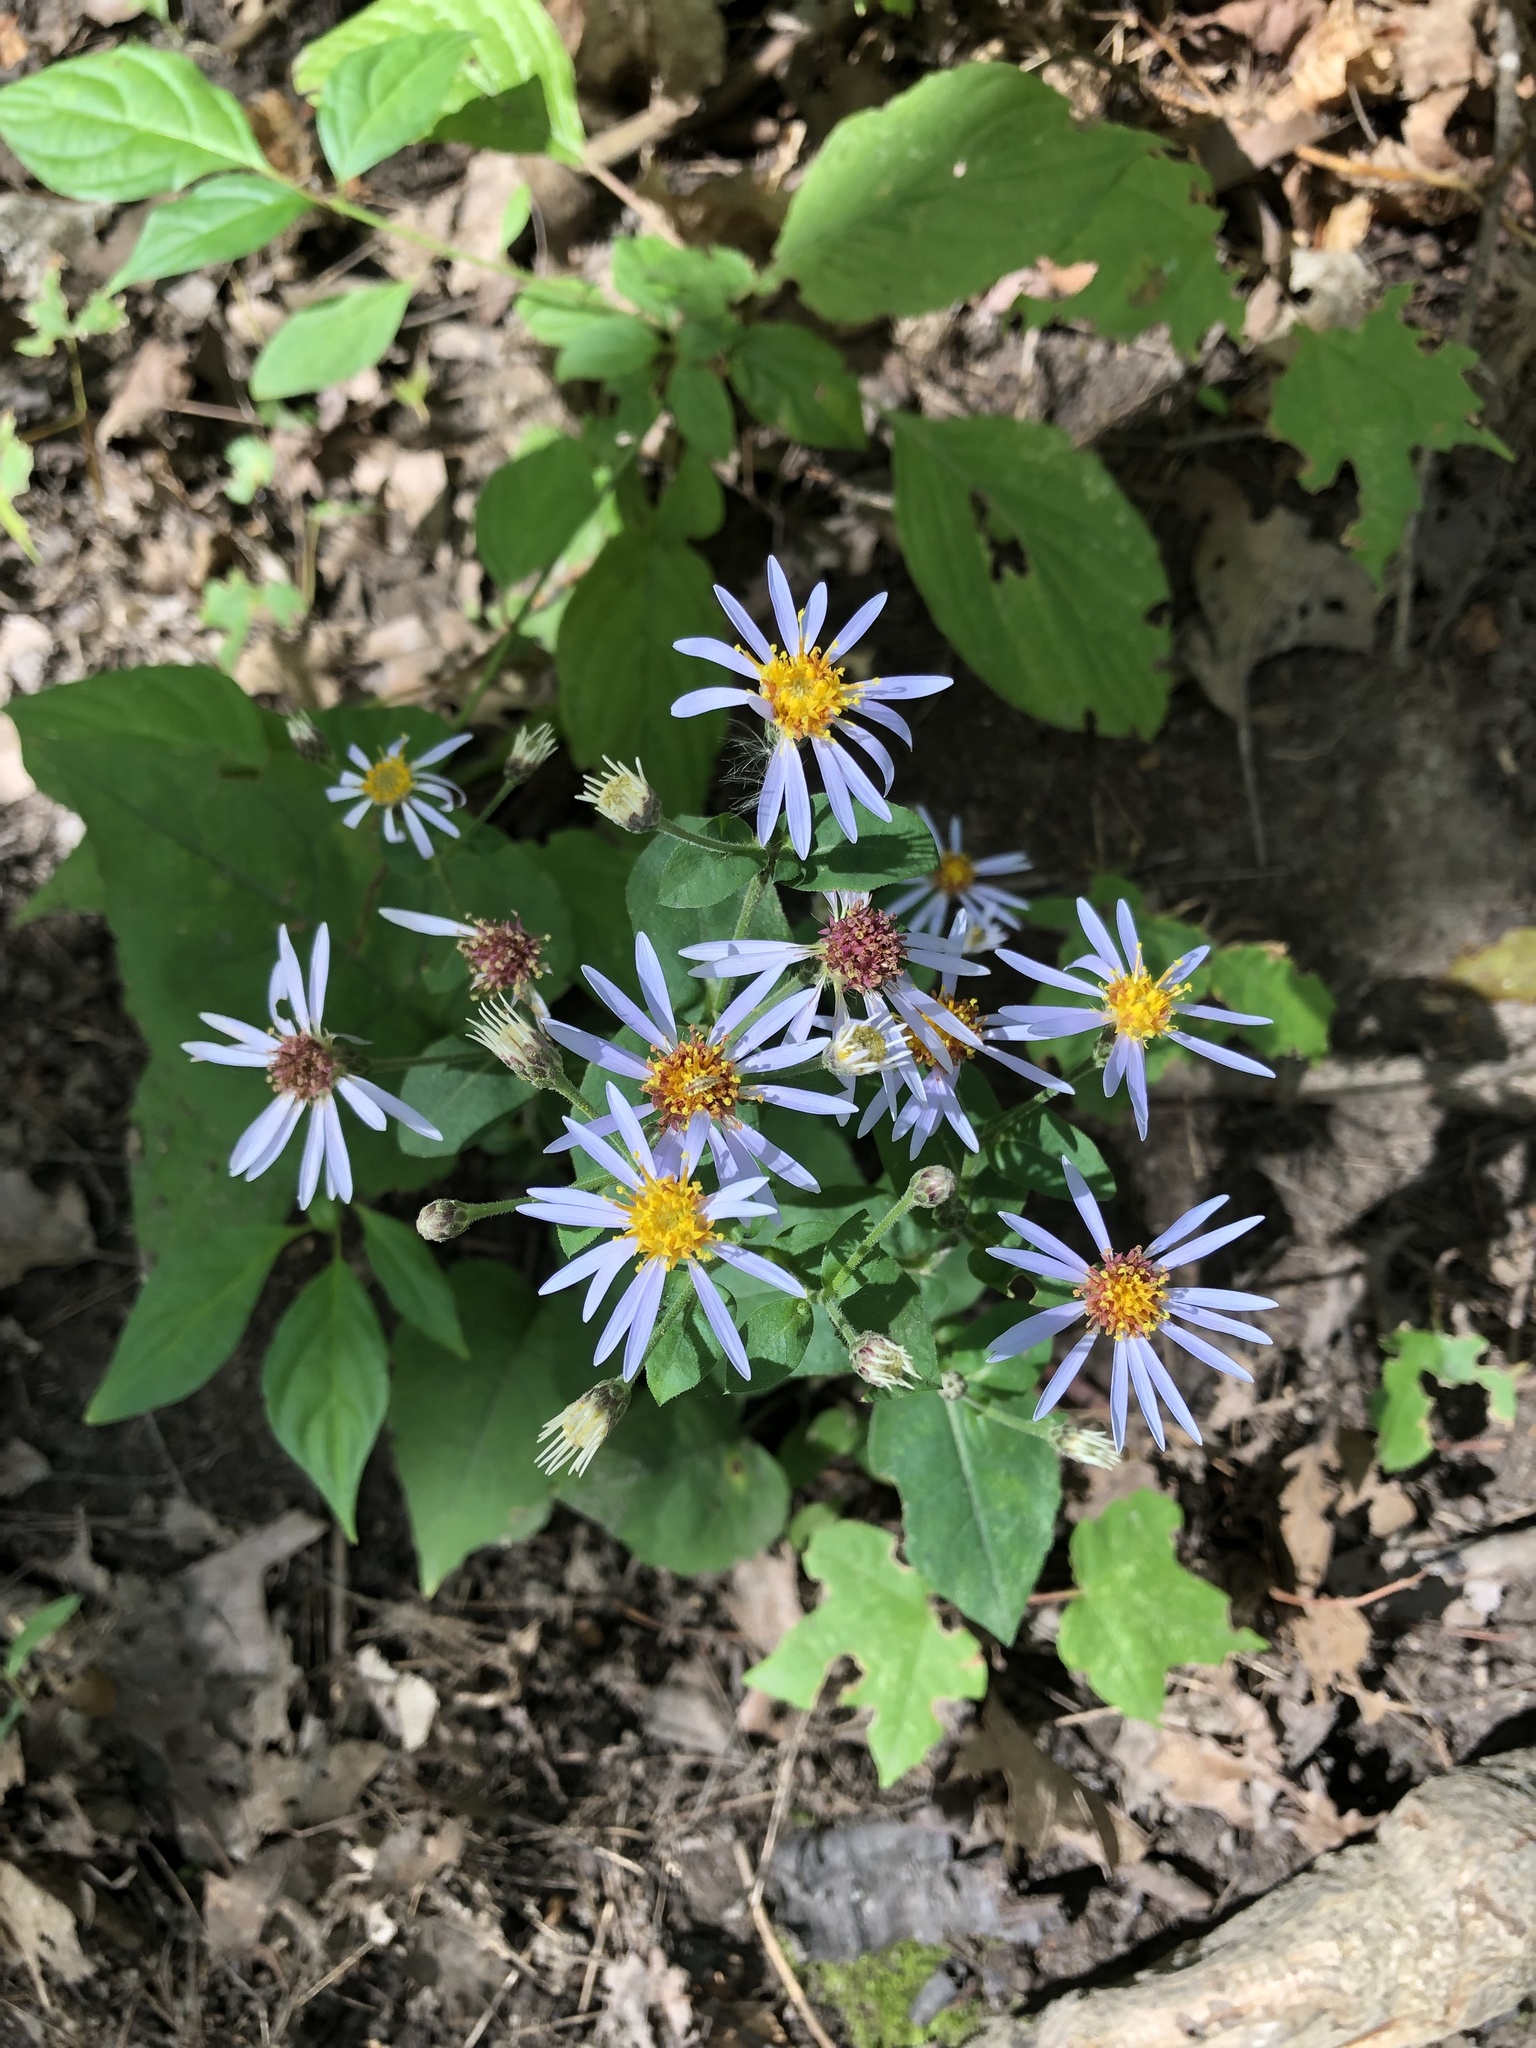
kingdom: Plantae
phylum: Tracheophyta
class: Magnoliopsida
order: Asterales
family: Asteraceae
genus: Eurybia
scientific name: Eurybia macrophylla
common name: Big-leaved aster
